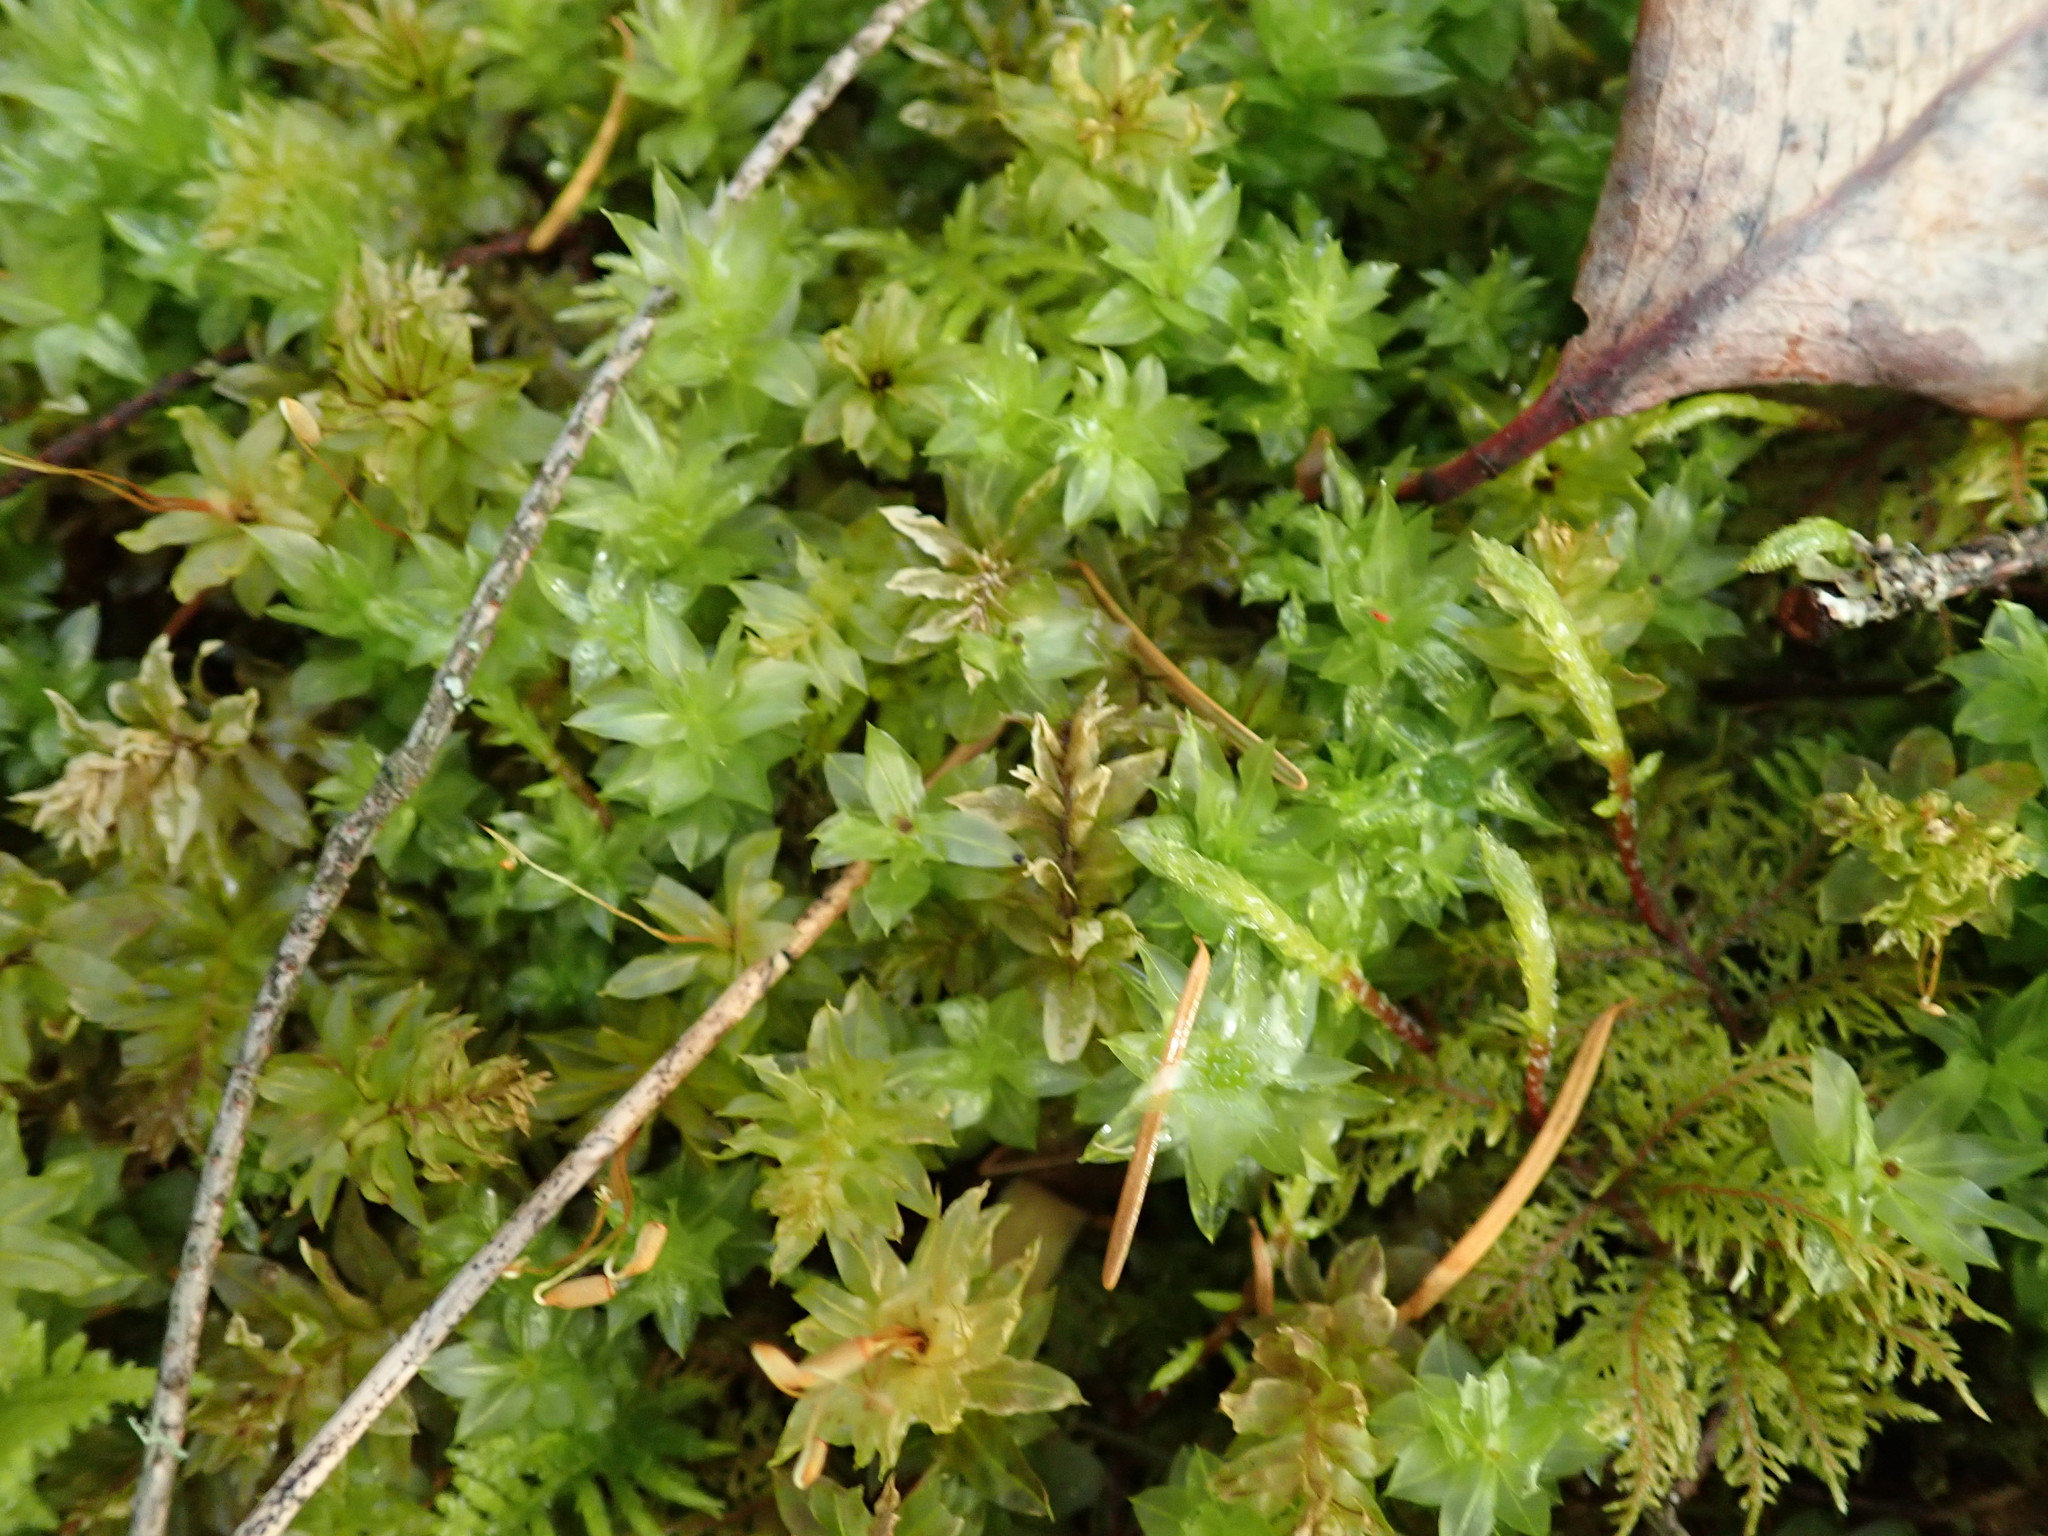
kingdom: Plantae
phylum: Bryophyta
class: Bryopsida
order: Bryales
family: Mniaceae
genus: Plagiomnium
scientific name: Plagiomnium insigne
